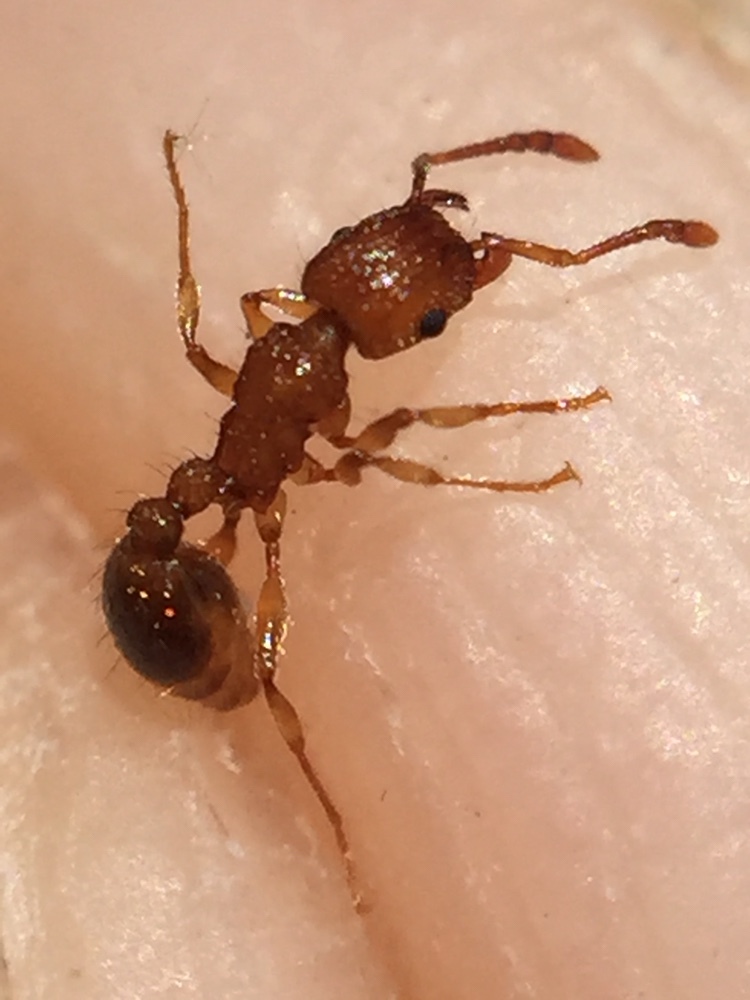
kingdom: Animalia
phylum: Arthropoda
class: Insecta
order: Hymenoptera
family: Formicidae
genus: Tetramorium
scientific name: Tetramorium bicarinatum
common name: Guinea ant
